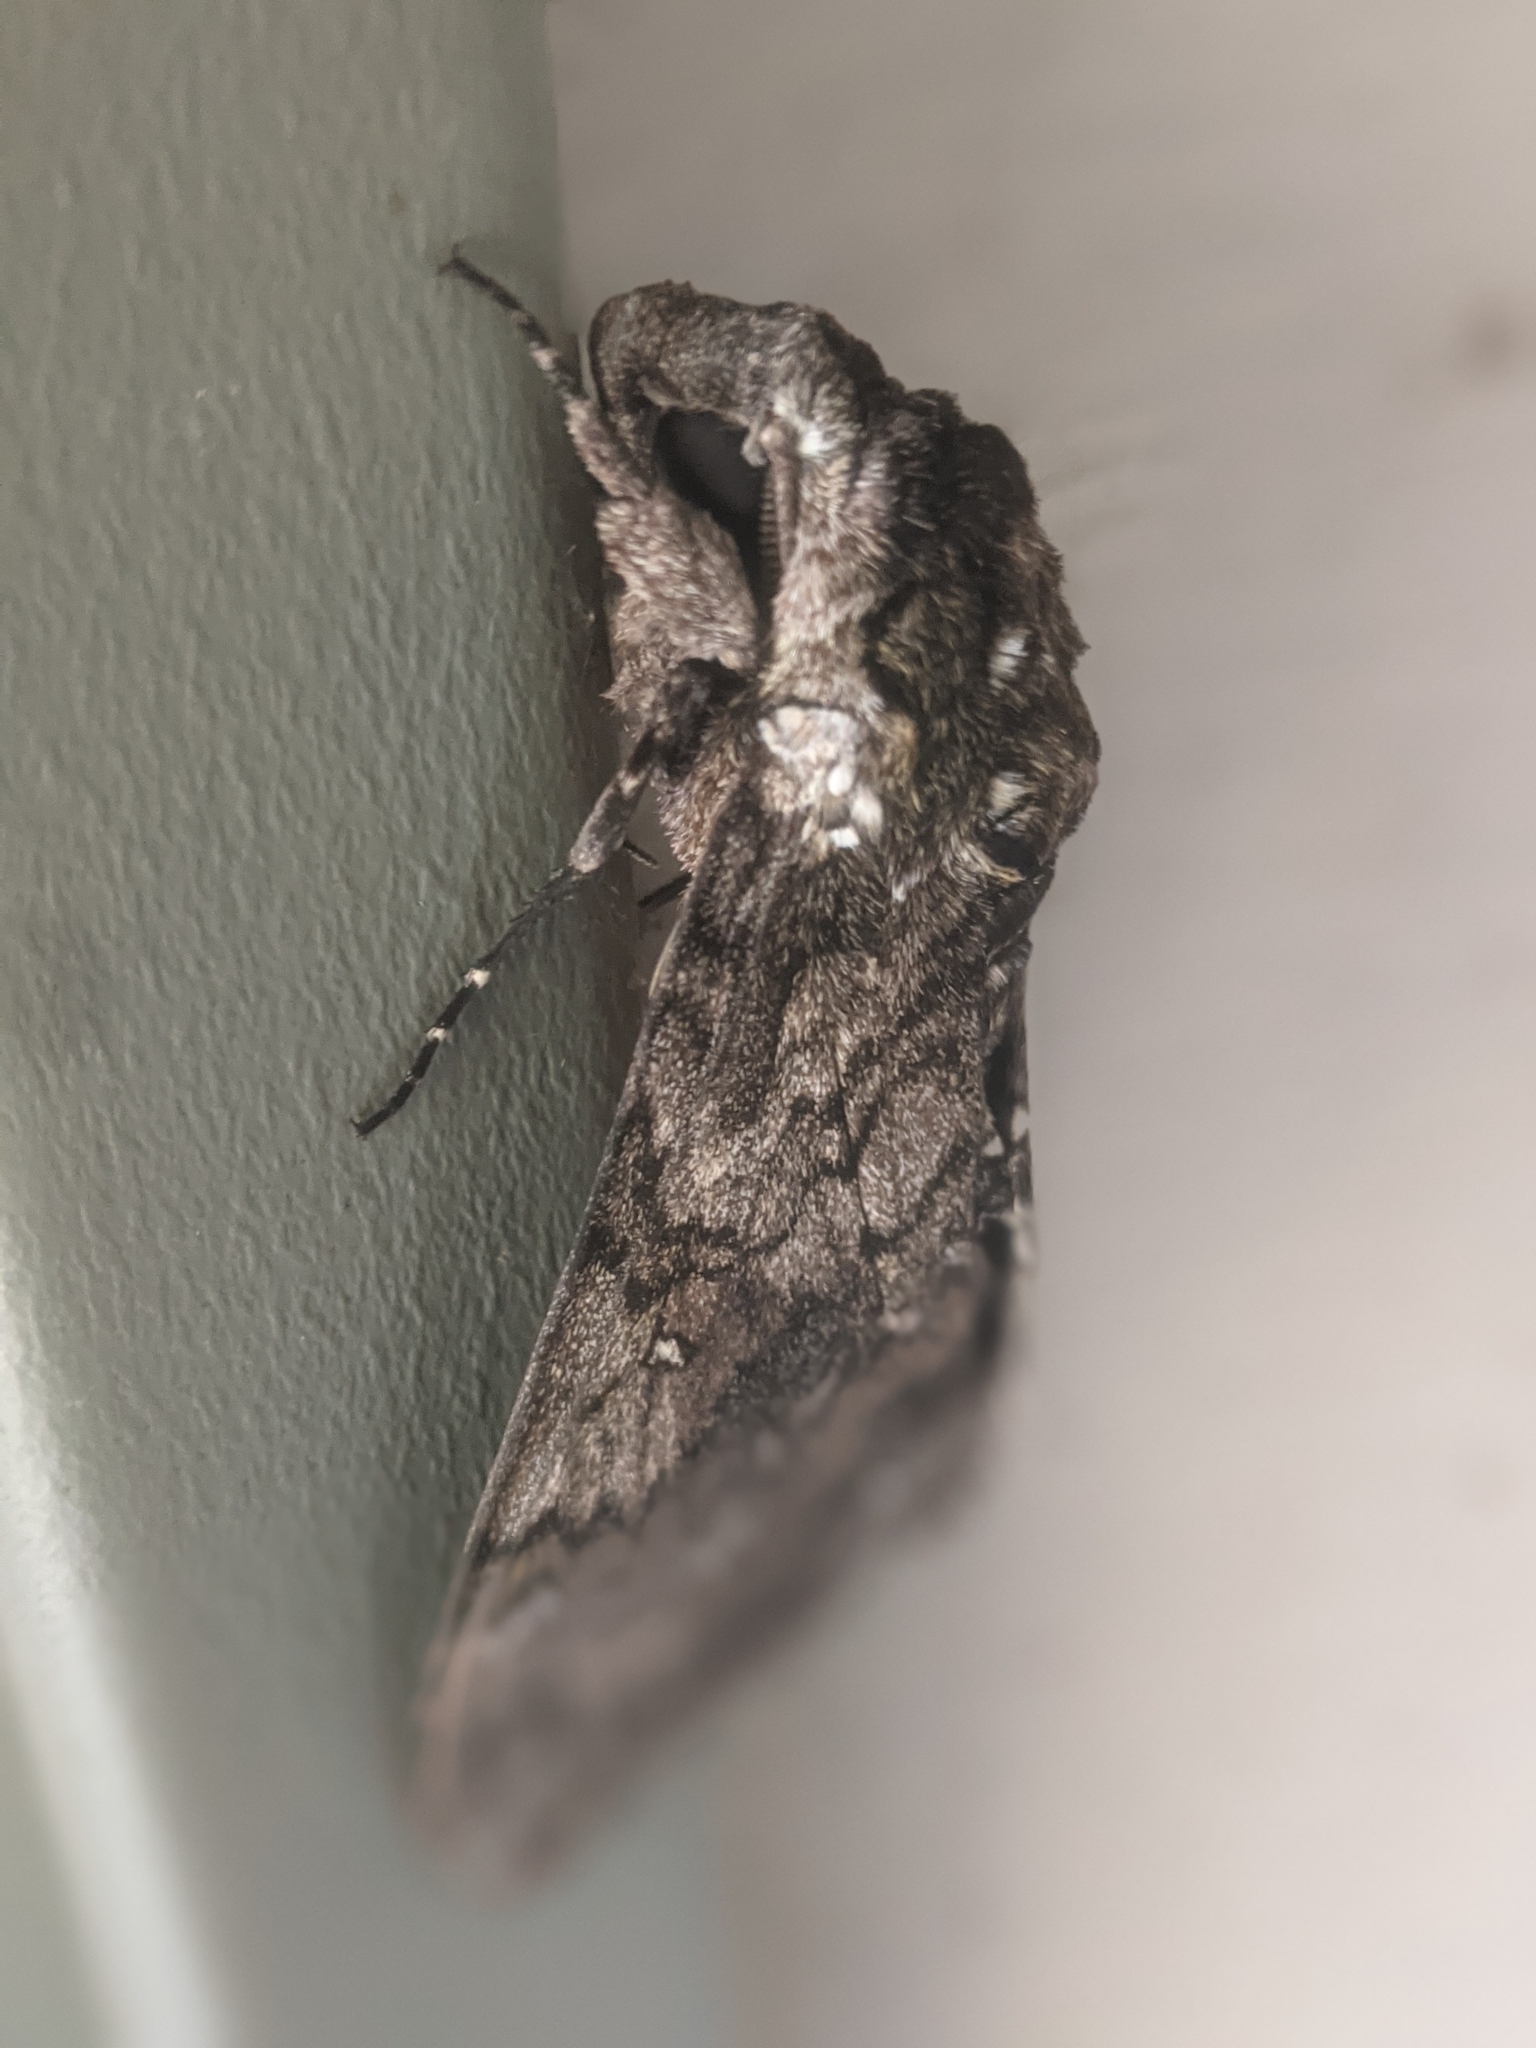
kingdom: Animalia
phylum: Arthropoda
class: Insecta
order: Lepidoptera
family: Sphingidae
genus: Manduca
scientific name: Manduca sexta
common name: Carolina sphinx
